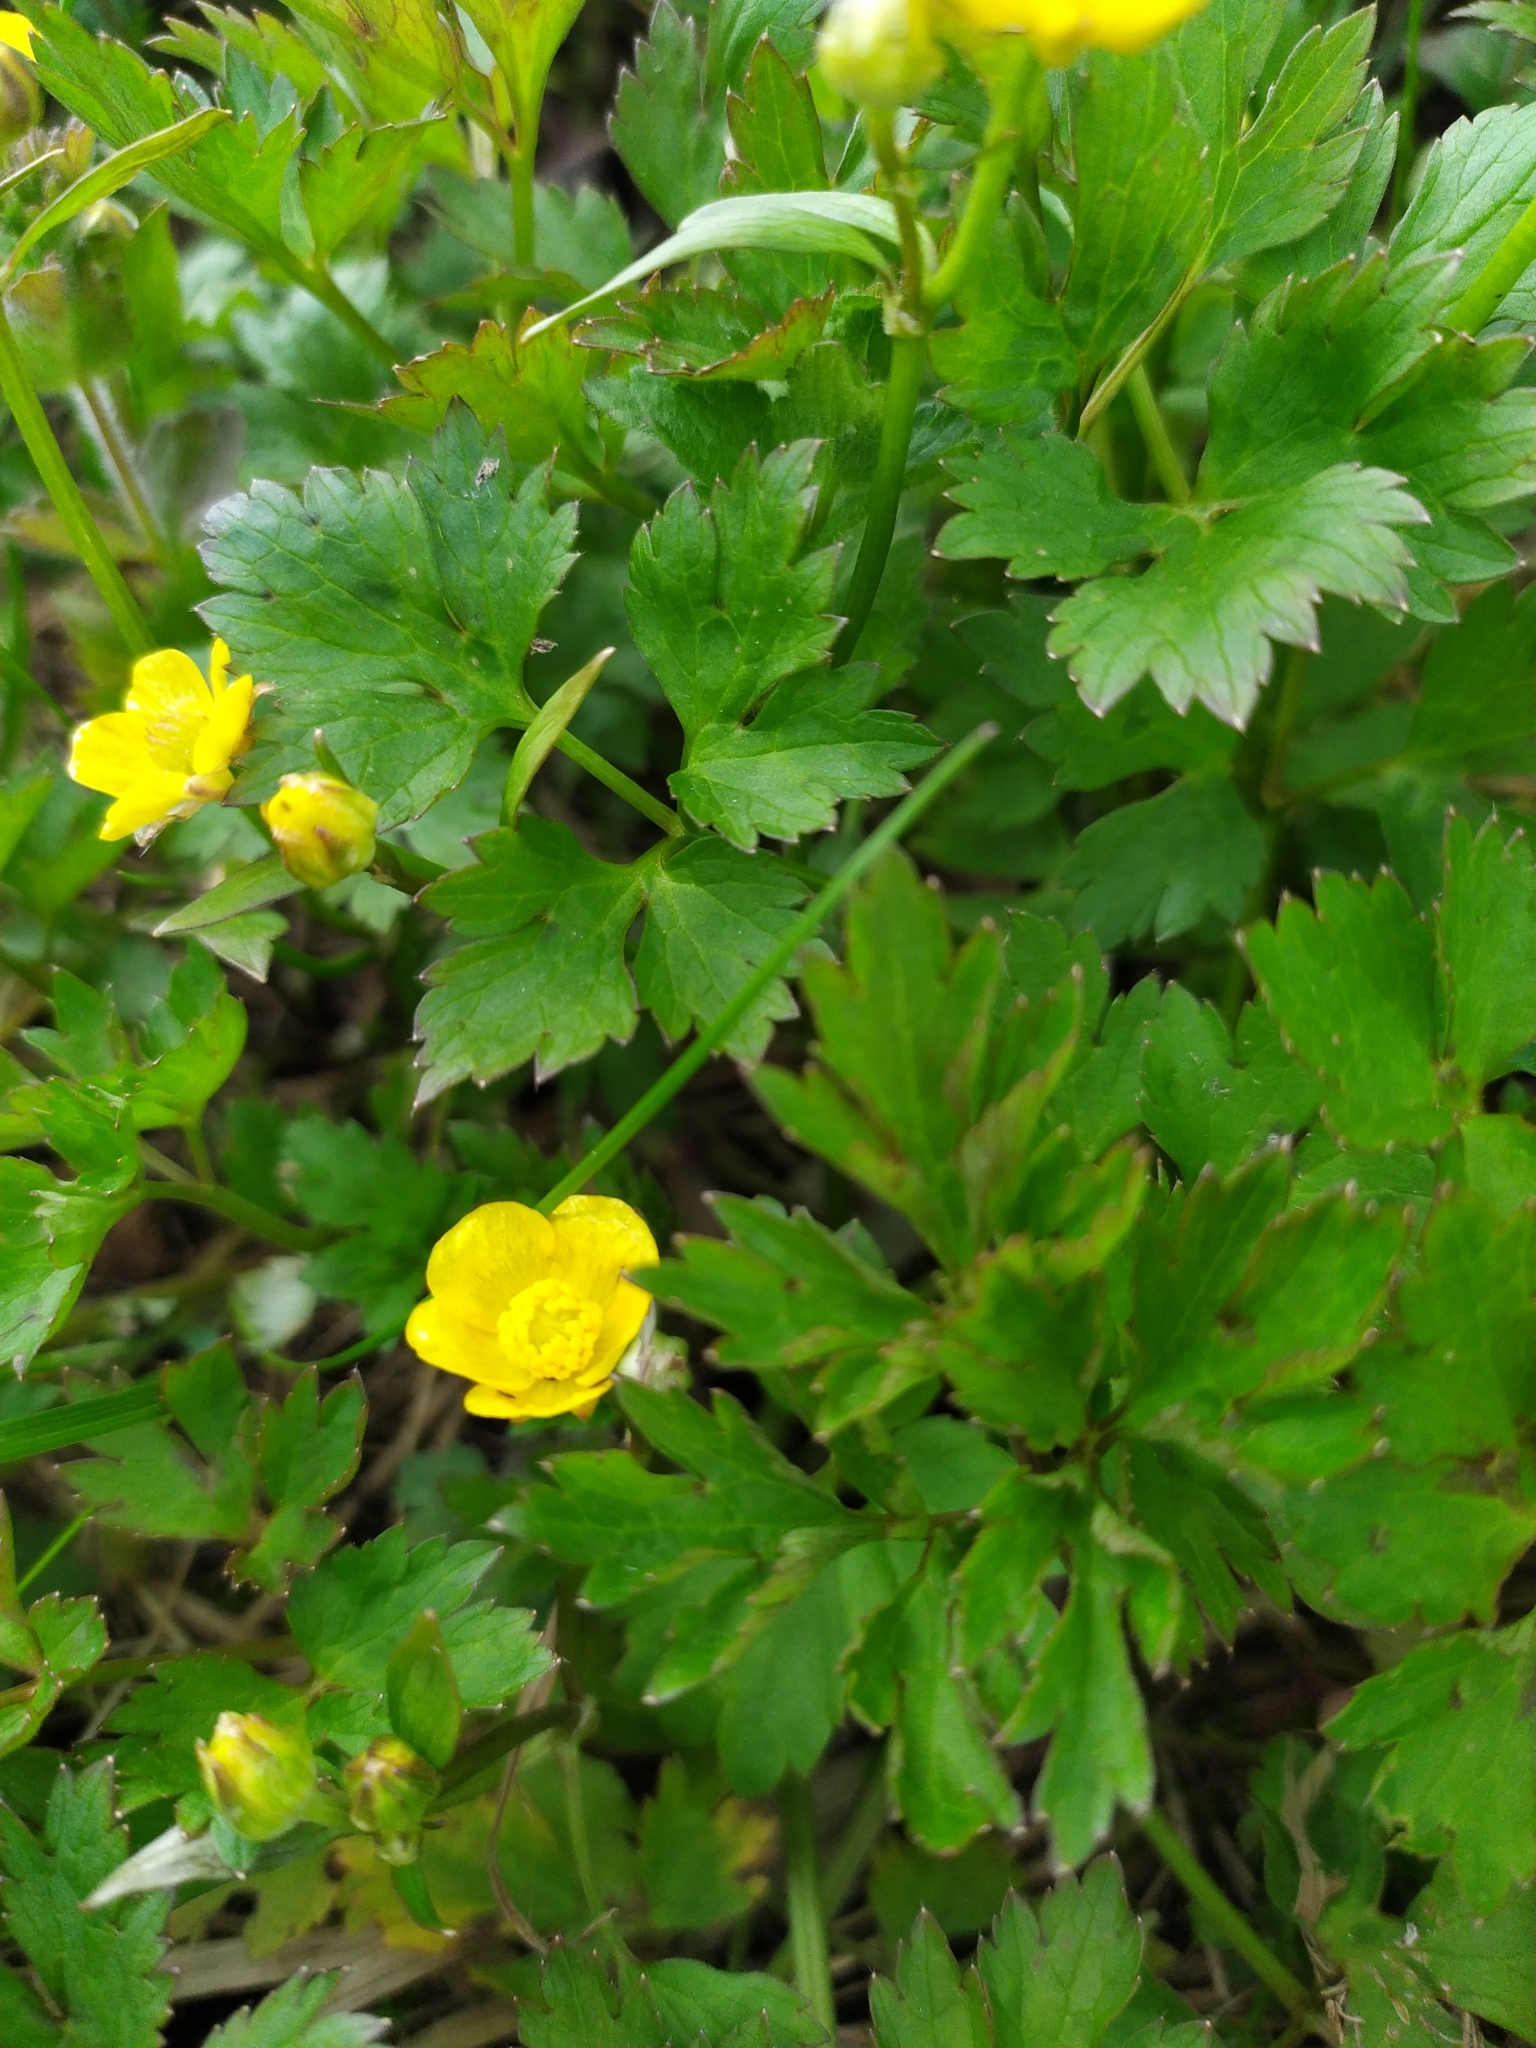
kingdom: Plantae
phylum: Tracheophyta
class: Magnoliopsida
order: Ranunculales
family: Ranunculaceae
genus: Ranunculus
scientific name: Ranunculus repens
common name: Creeping buttercup
